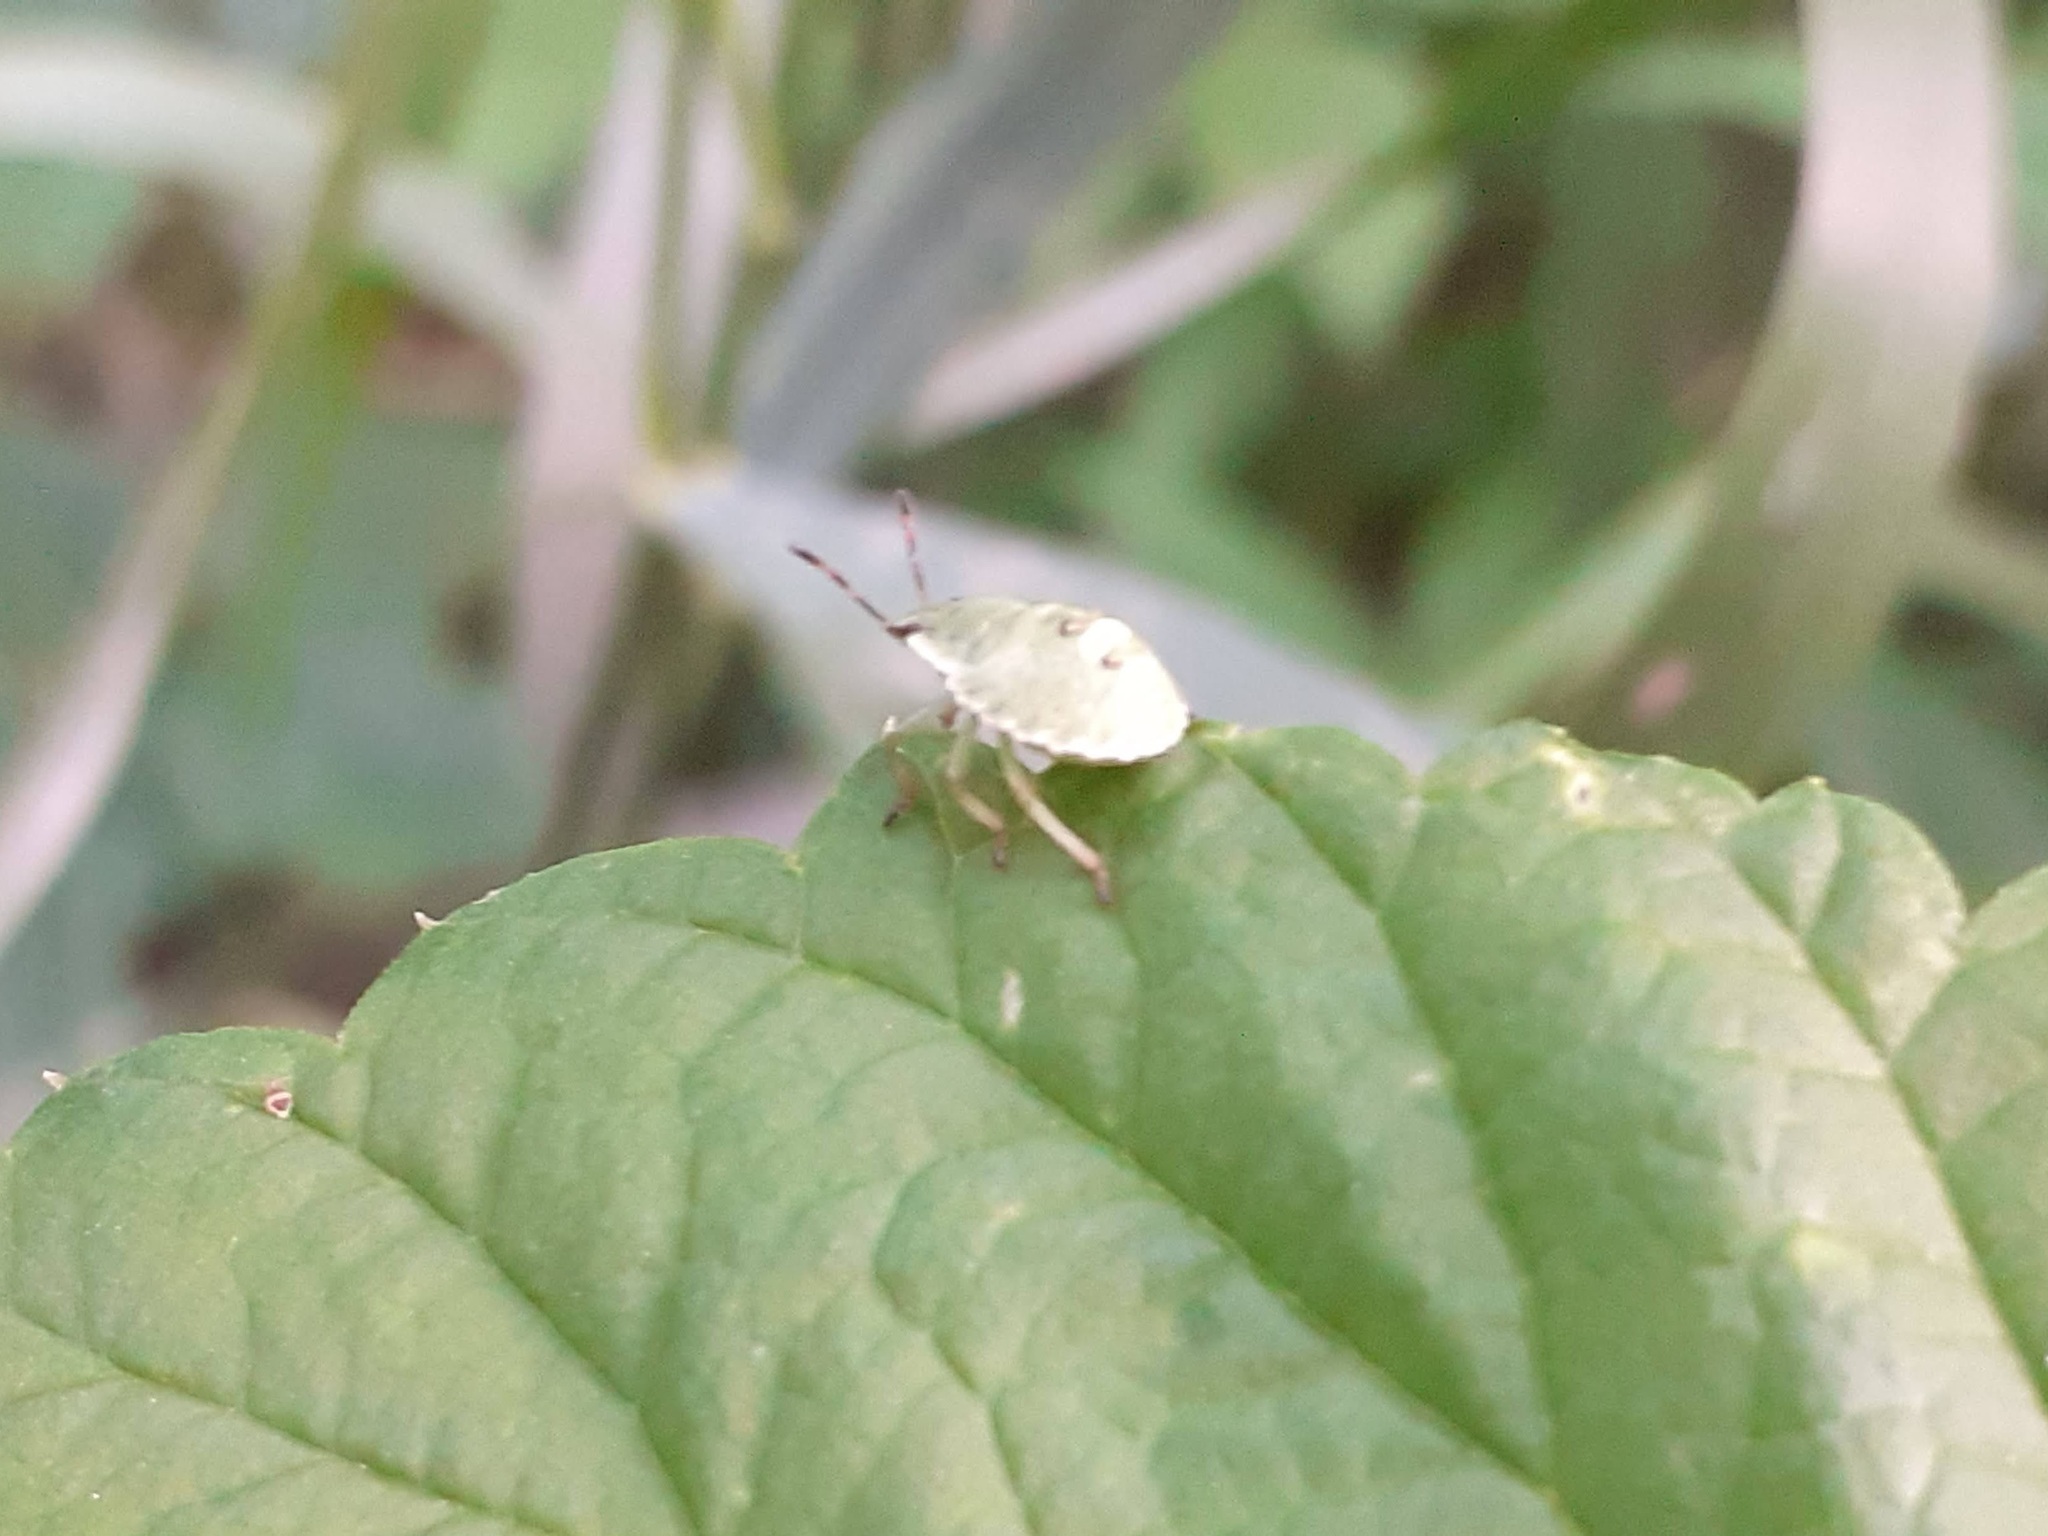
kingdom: Animalia
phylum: Arthropoda
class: Insecta
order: Hemiptera
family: Pentatomidae
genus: Palomena
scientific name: Palomena prasina
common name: Green shieldbug
